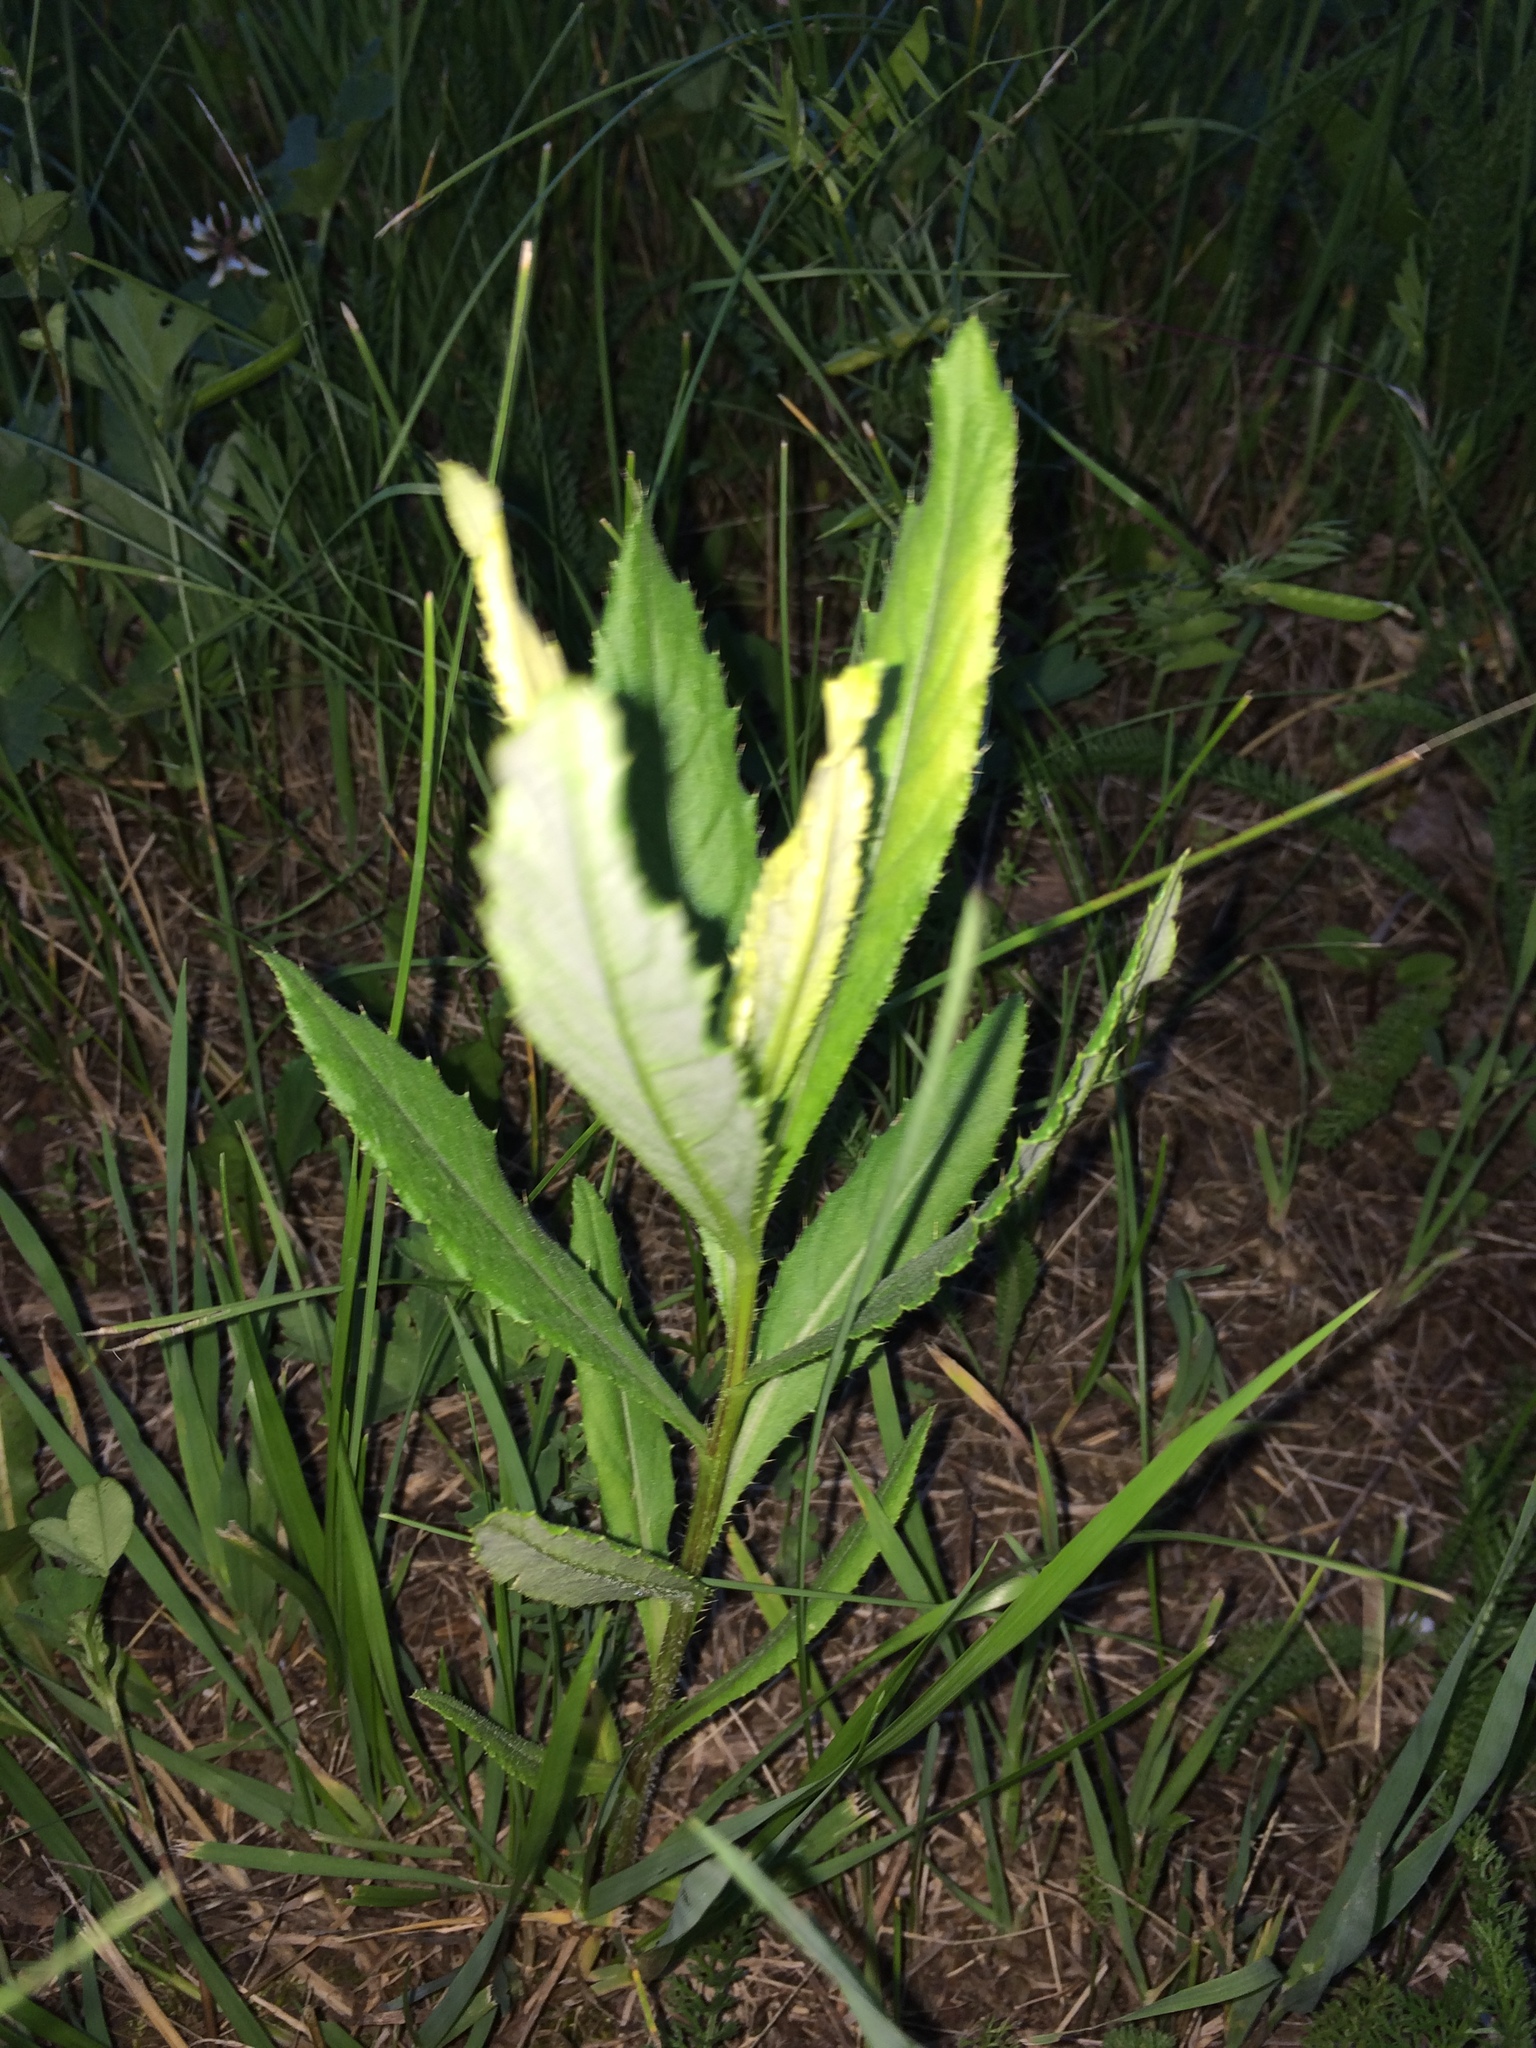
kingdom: Plantae
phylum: Tracheophyta
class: Magnoliopsida
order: Asterales
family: Asteraceae
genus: Cirsium
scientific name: Cirsium arvense
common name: Creeping thistle
